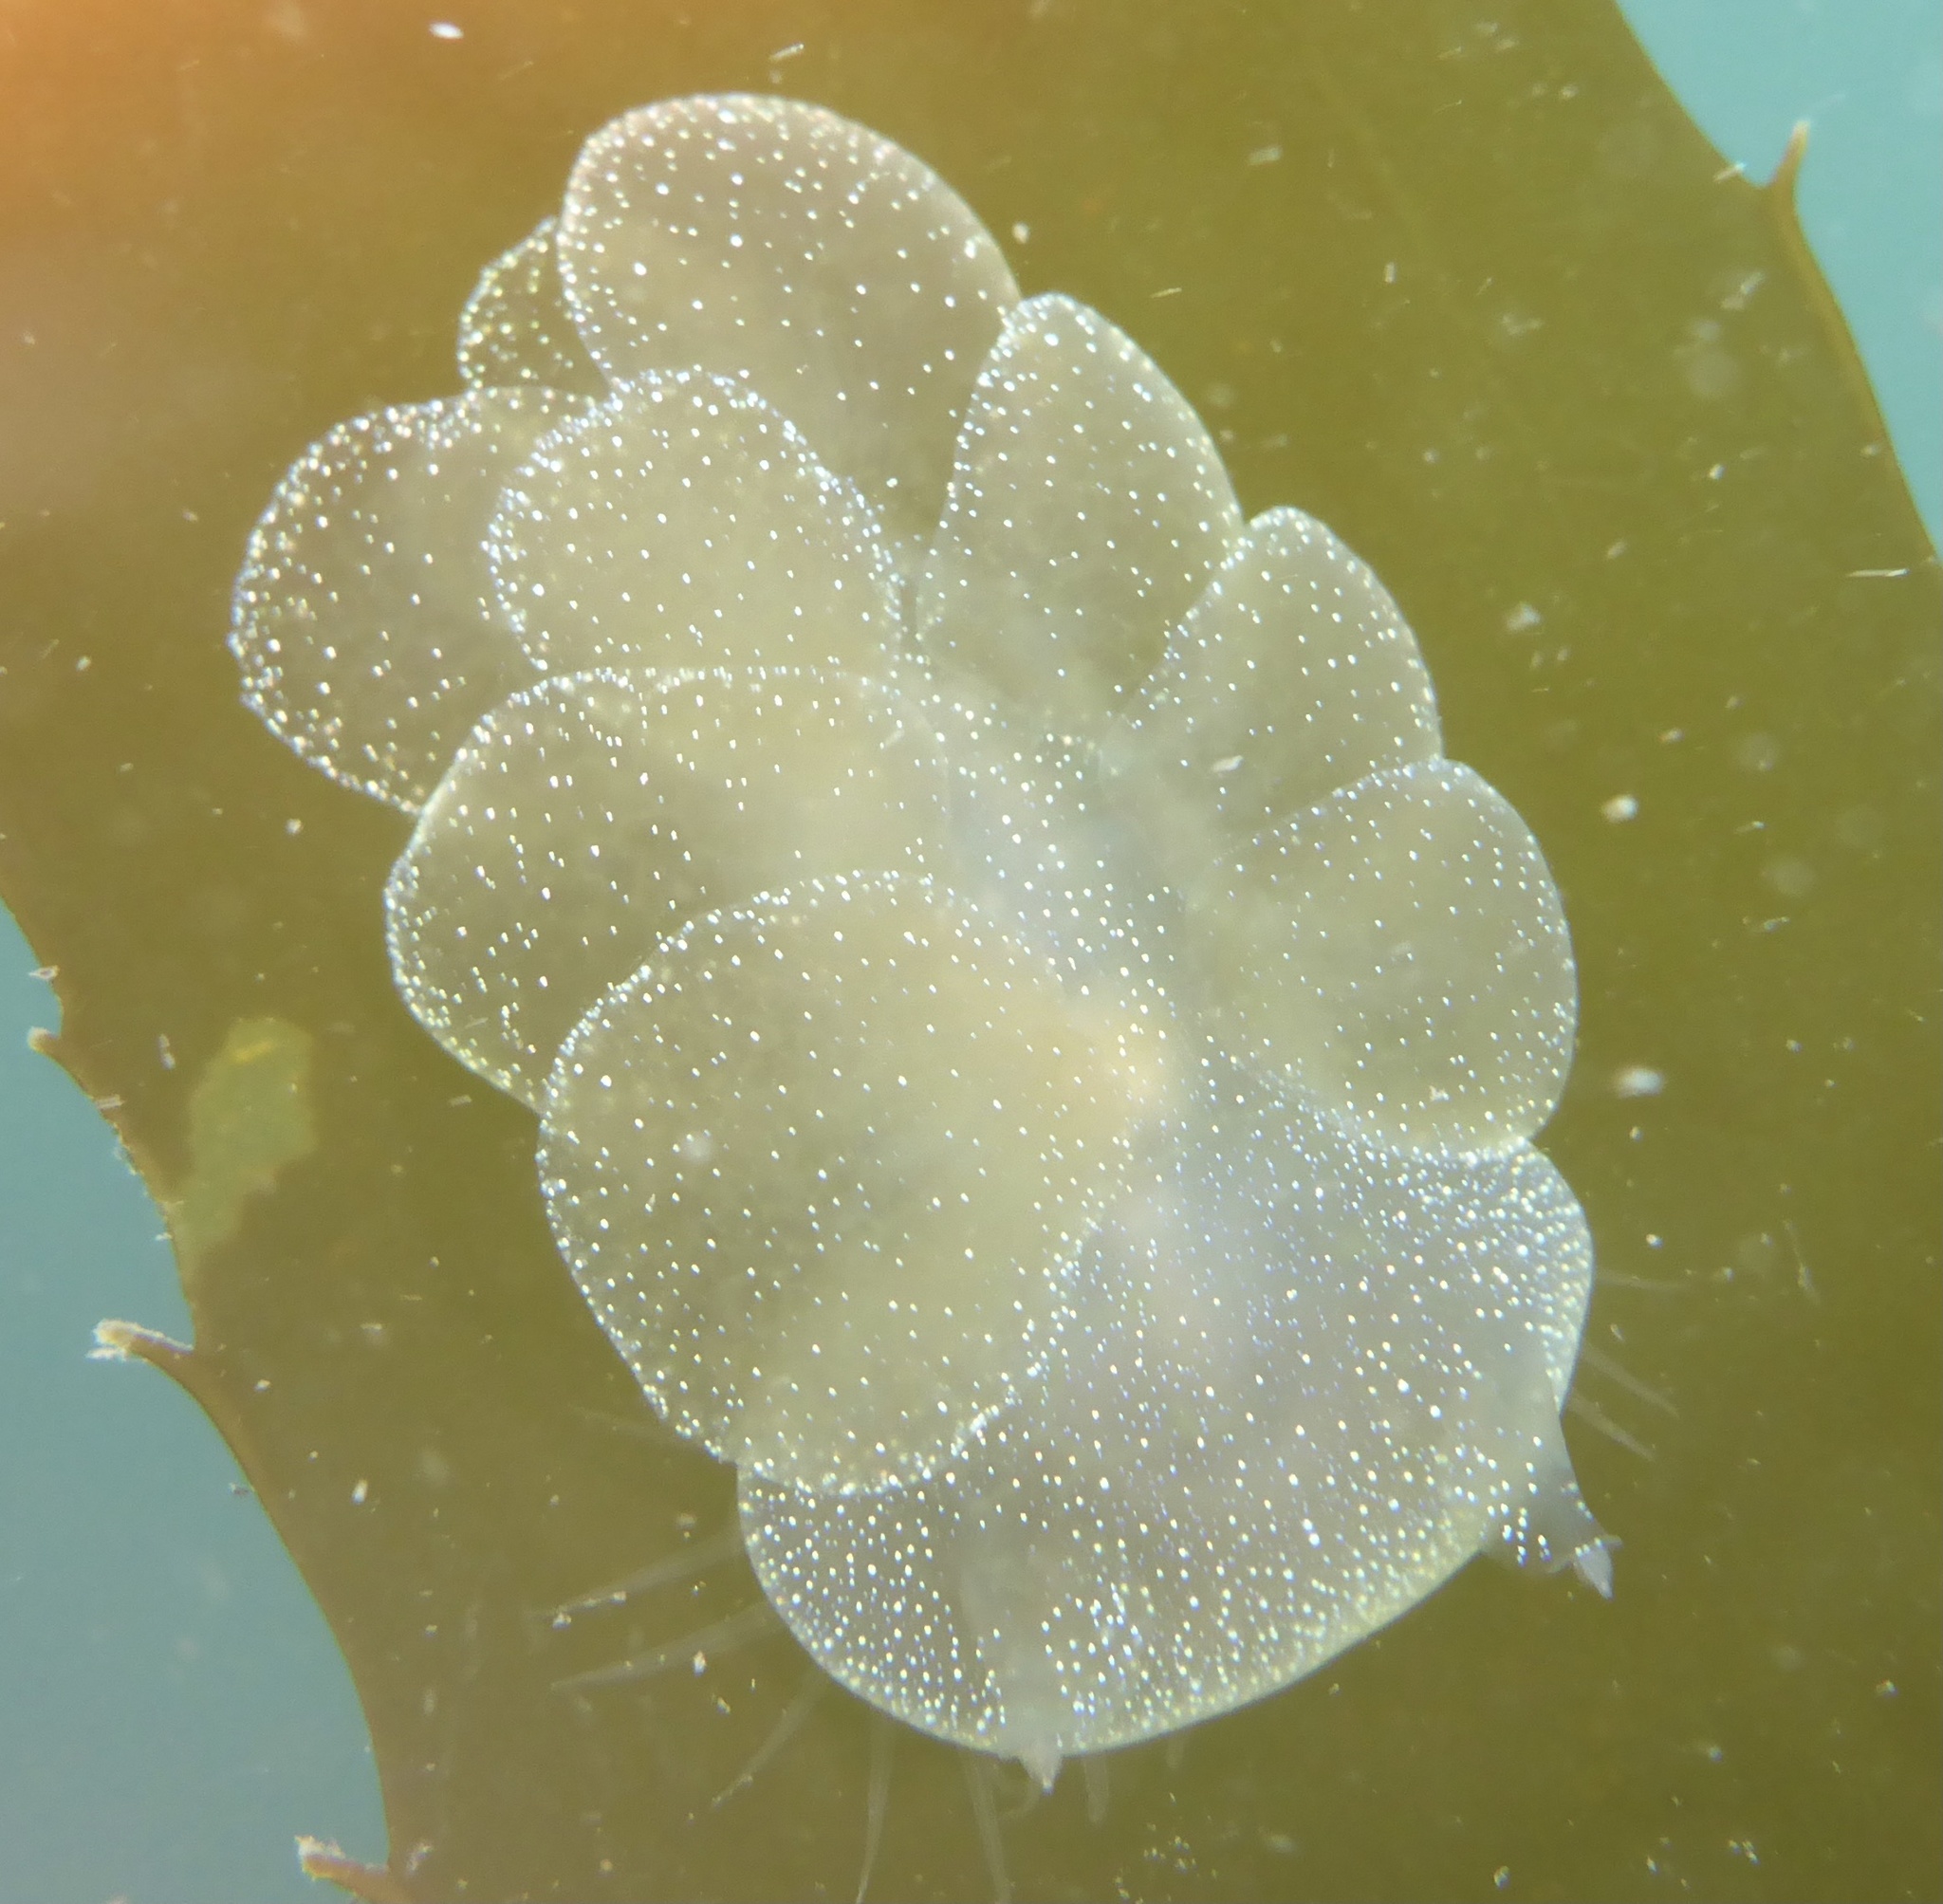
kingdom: Animalia
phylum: Mollusca
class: Gastropoda
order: Nudibranchia
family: Tethydidae
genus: Melibe
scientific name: Melibe leonina
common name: Lion nudibranch
